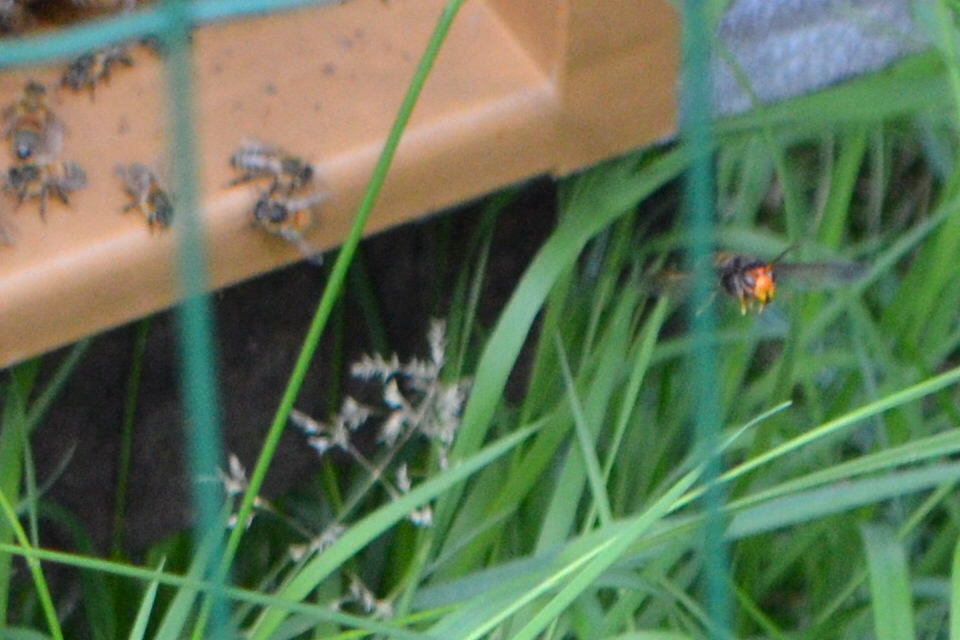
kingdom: Animalia
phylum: Arthropoda
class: Insecta
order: Hymenoptera
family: Vespidae
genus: Vespa
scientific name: Vespa velutina
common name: Asian hornet
